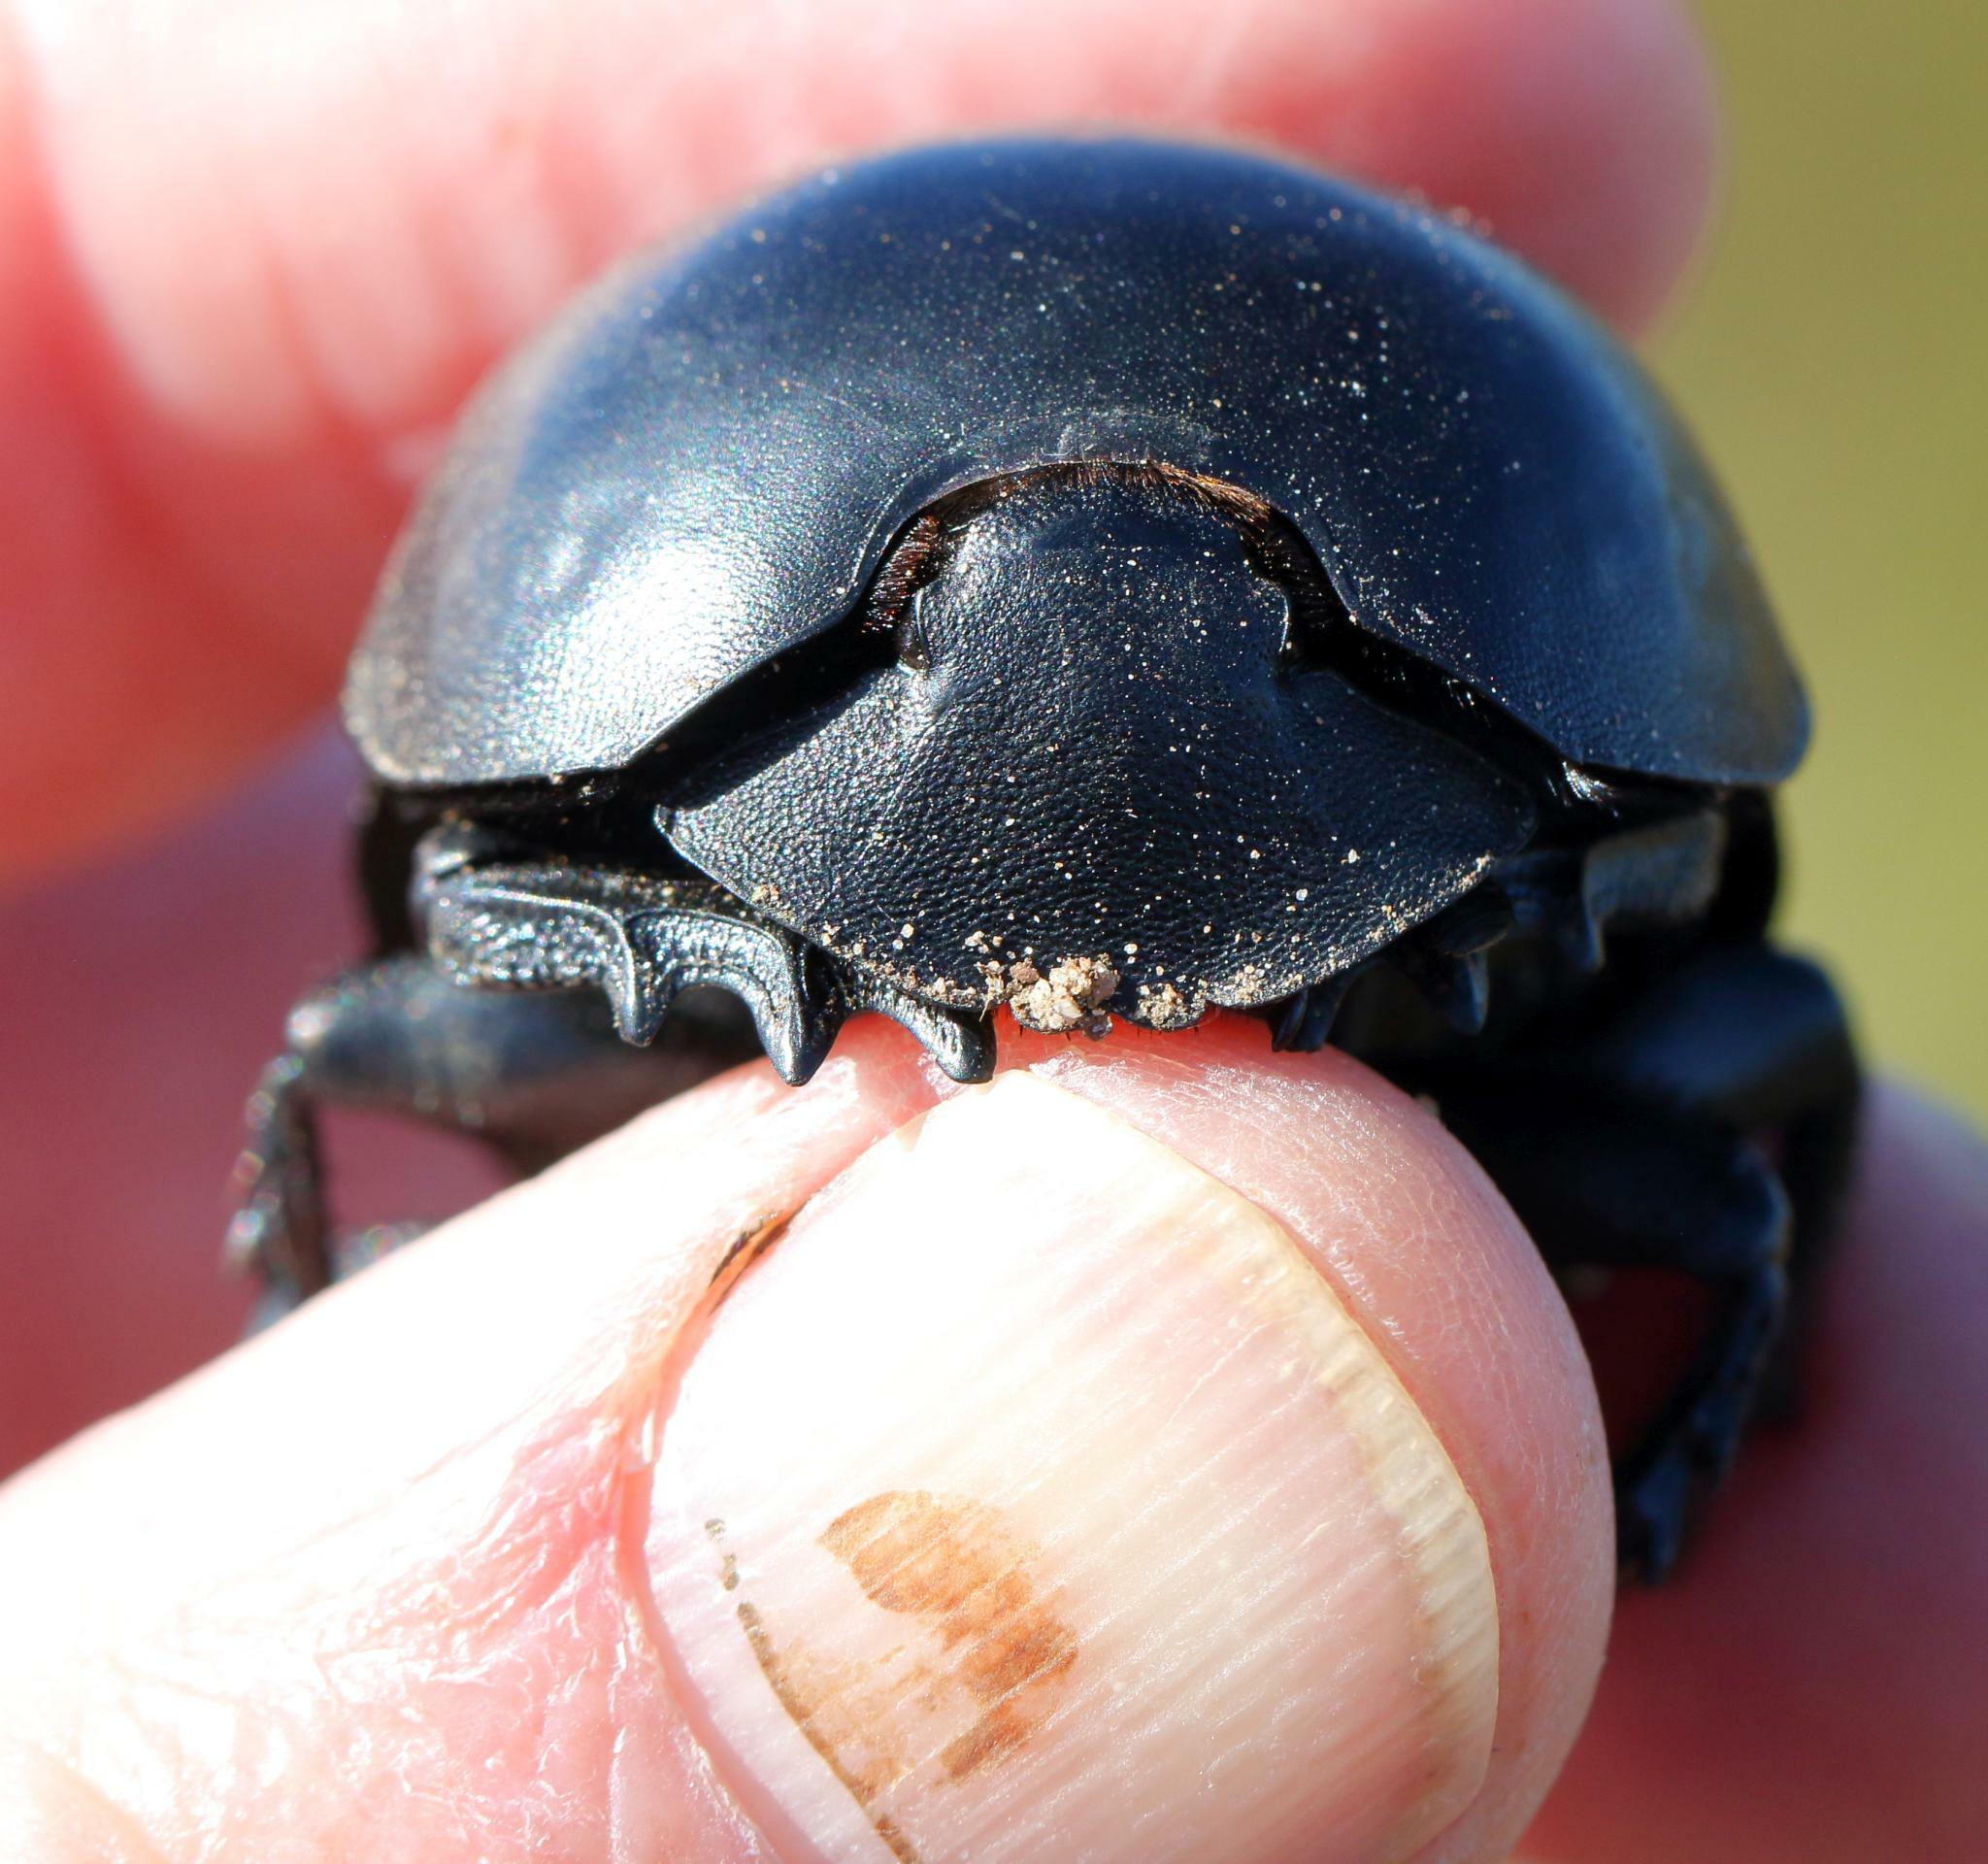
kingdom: Animalia
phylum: Arthropoda
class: Insecta
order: Coleoptera
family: Scarabaeidae
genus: Circellium
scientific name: Circellium bacchus
